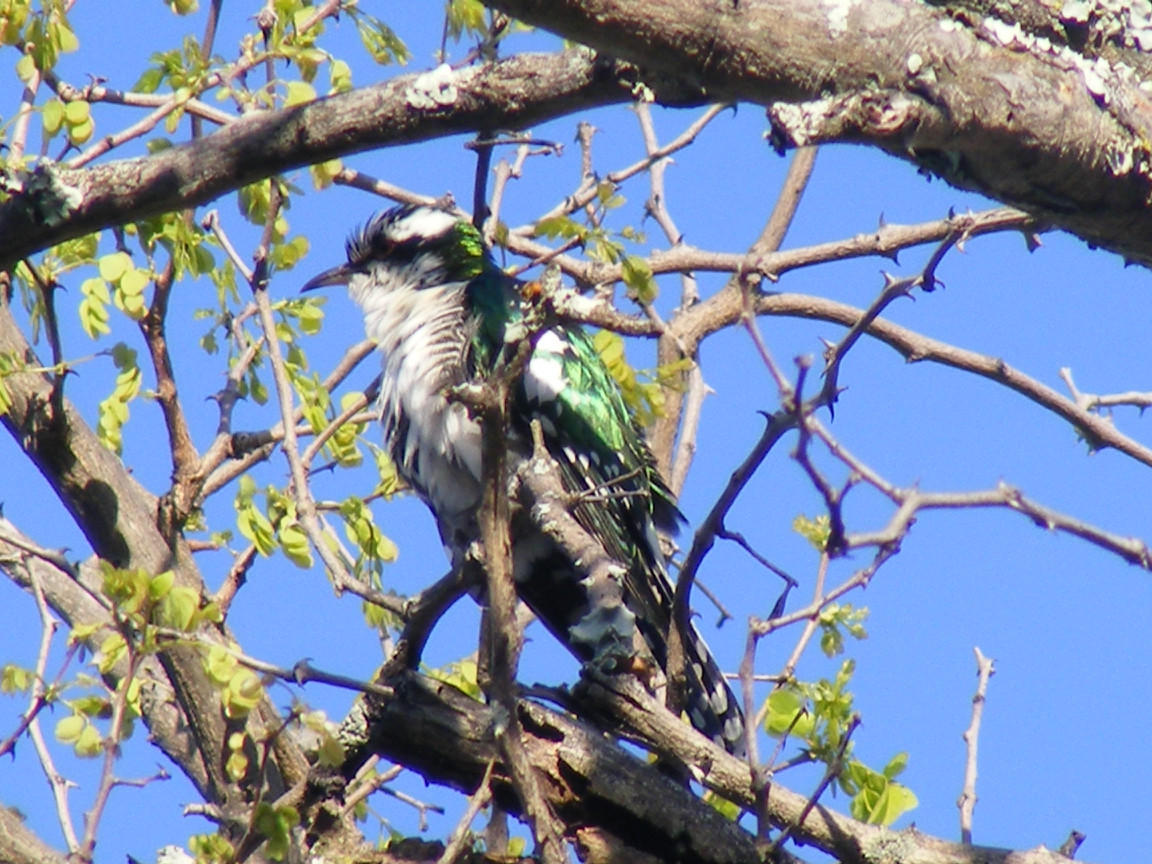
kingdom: Animalia
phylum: Chordata
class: Aves
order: Cuculiformes
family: Cuculidae
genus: Chrysococcyx
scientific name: Chrysococcyx caprius
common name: Diederik cuckoo
